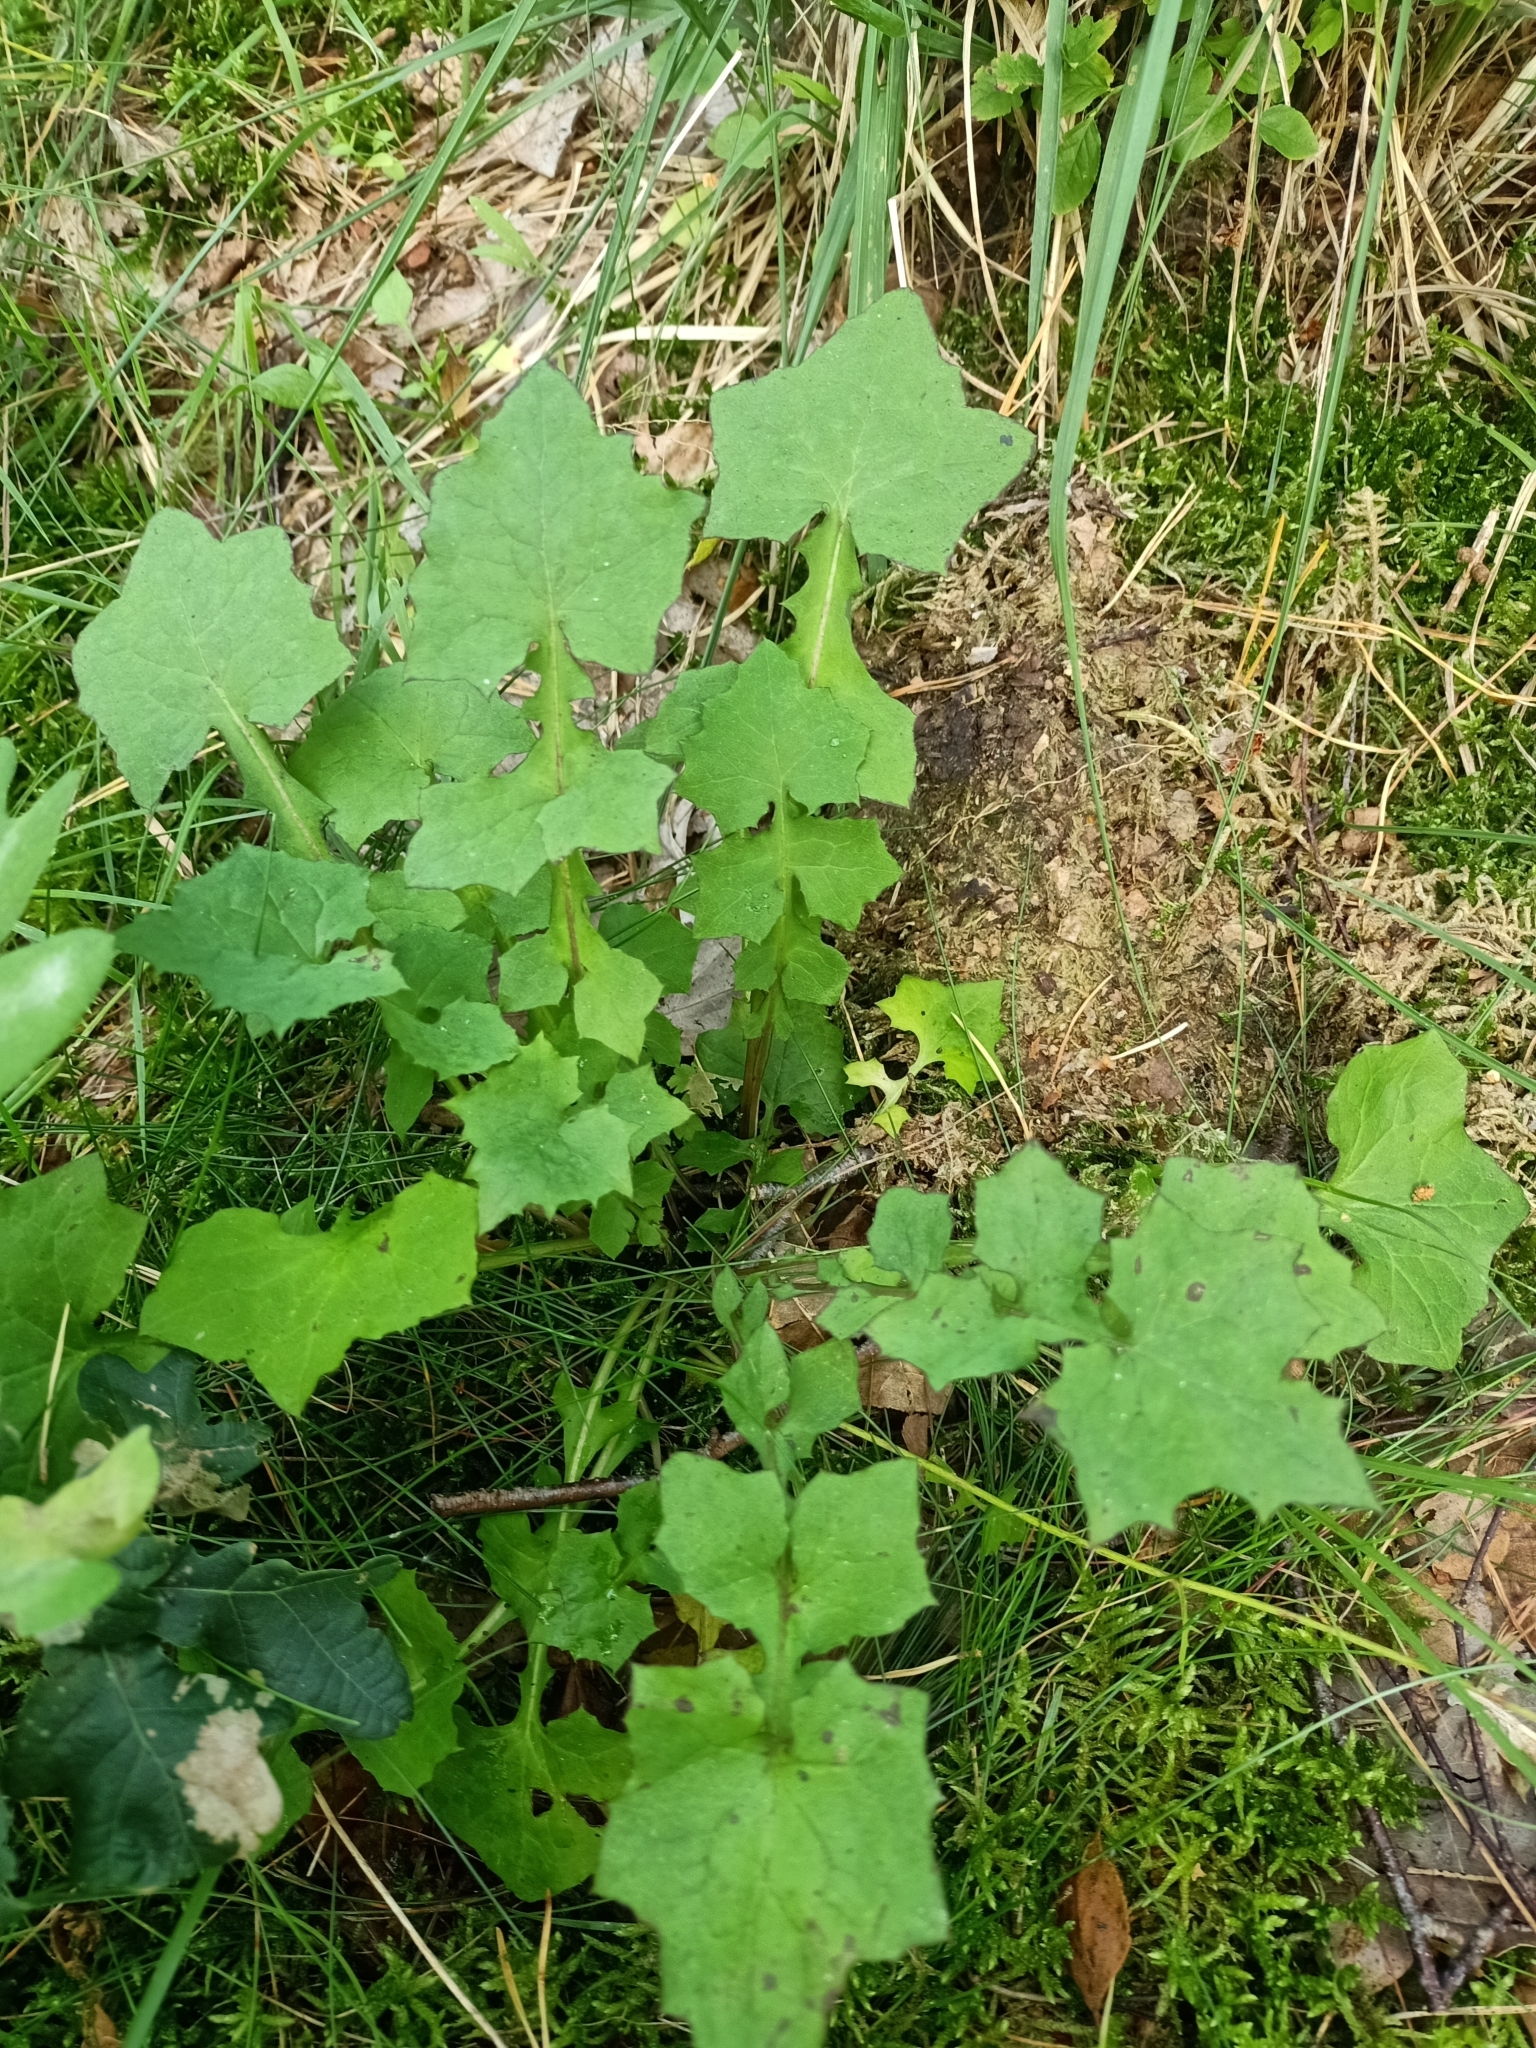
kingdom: Plantae
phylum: Tracheophyta
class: Magnoliopsida
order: Asterales
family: Asteraceae
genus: Mycelis
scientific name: Mycelis muralis
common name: Wall lettuce
